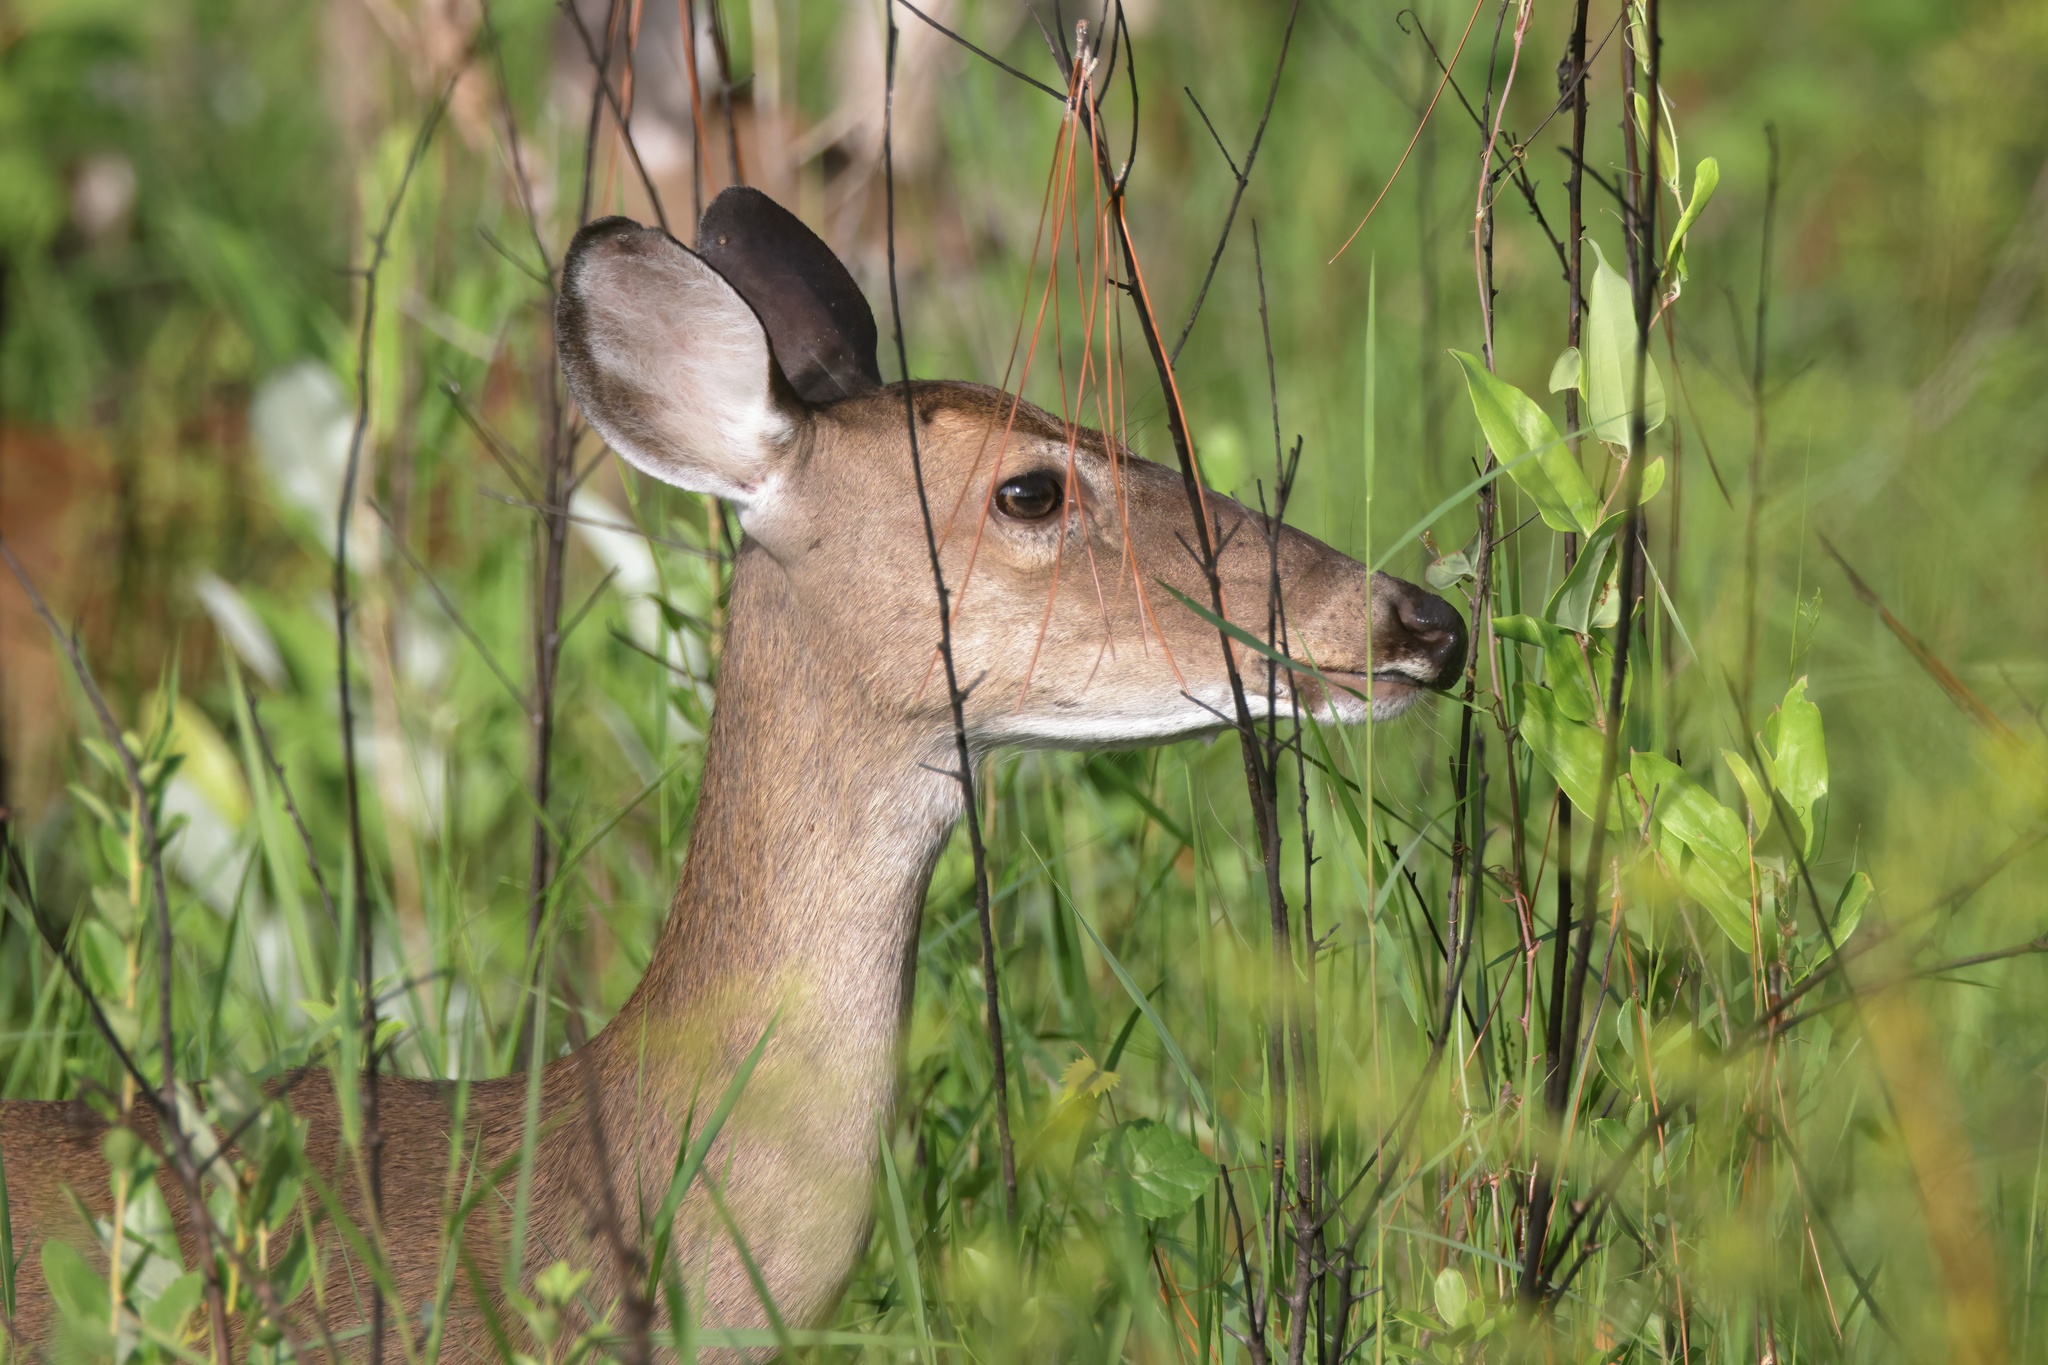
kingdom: Animalia
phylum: Chordata
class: Mammalia
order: Artiodactyla
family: Cervidae
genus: Odocoileus
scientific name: Odocoileus virginianus
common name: White-tailed deer
